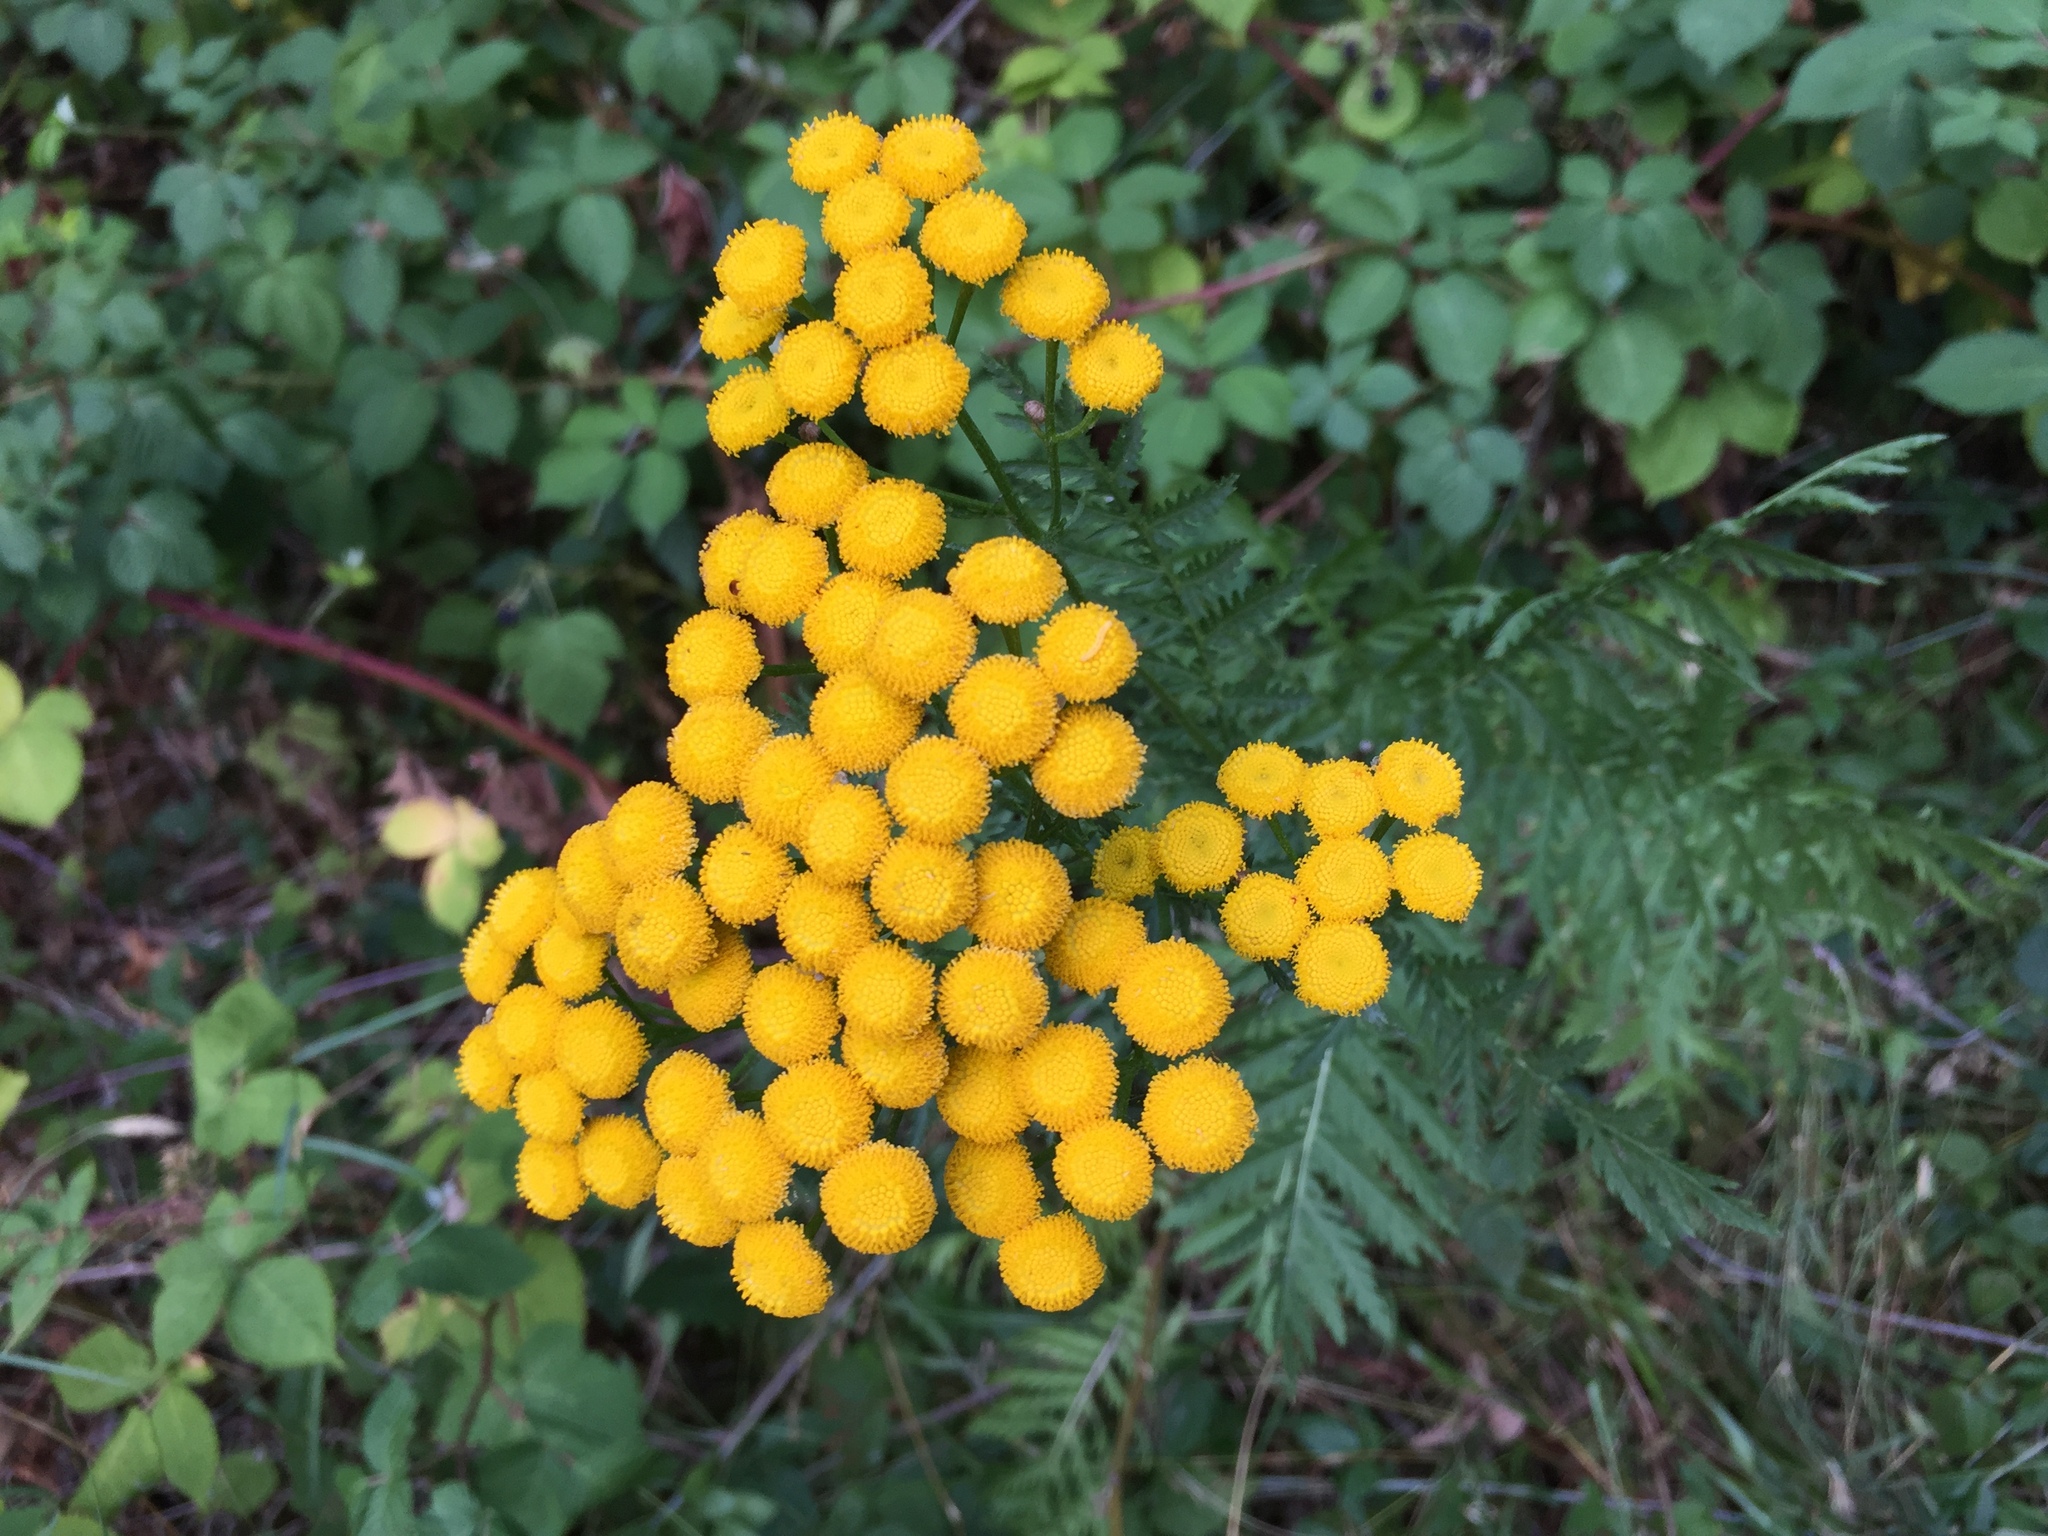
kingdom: Plantae
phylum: Tracheophyta
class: Magnoliopsida
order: Asterales
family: Asteraceae
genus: Tanacetum
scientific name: Tanacetum vulgare
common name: Common tansy
